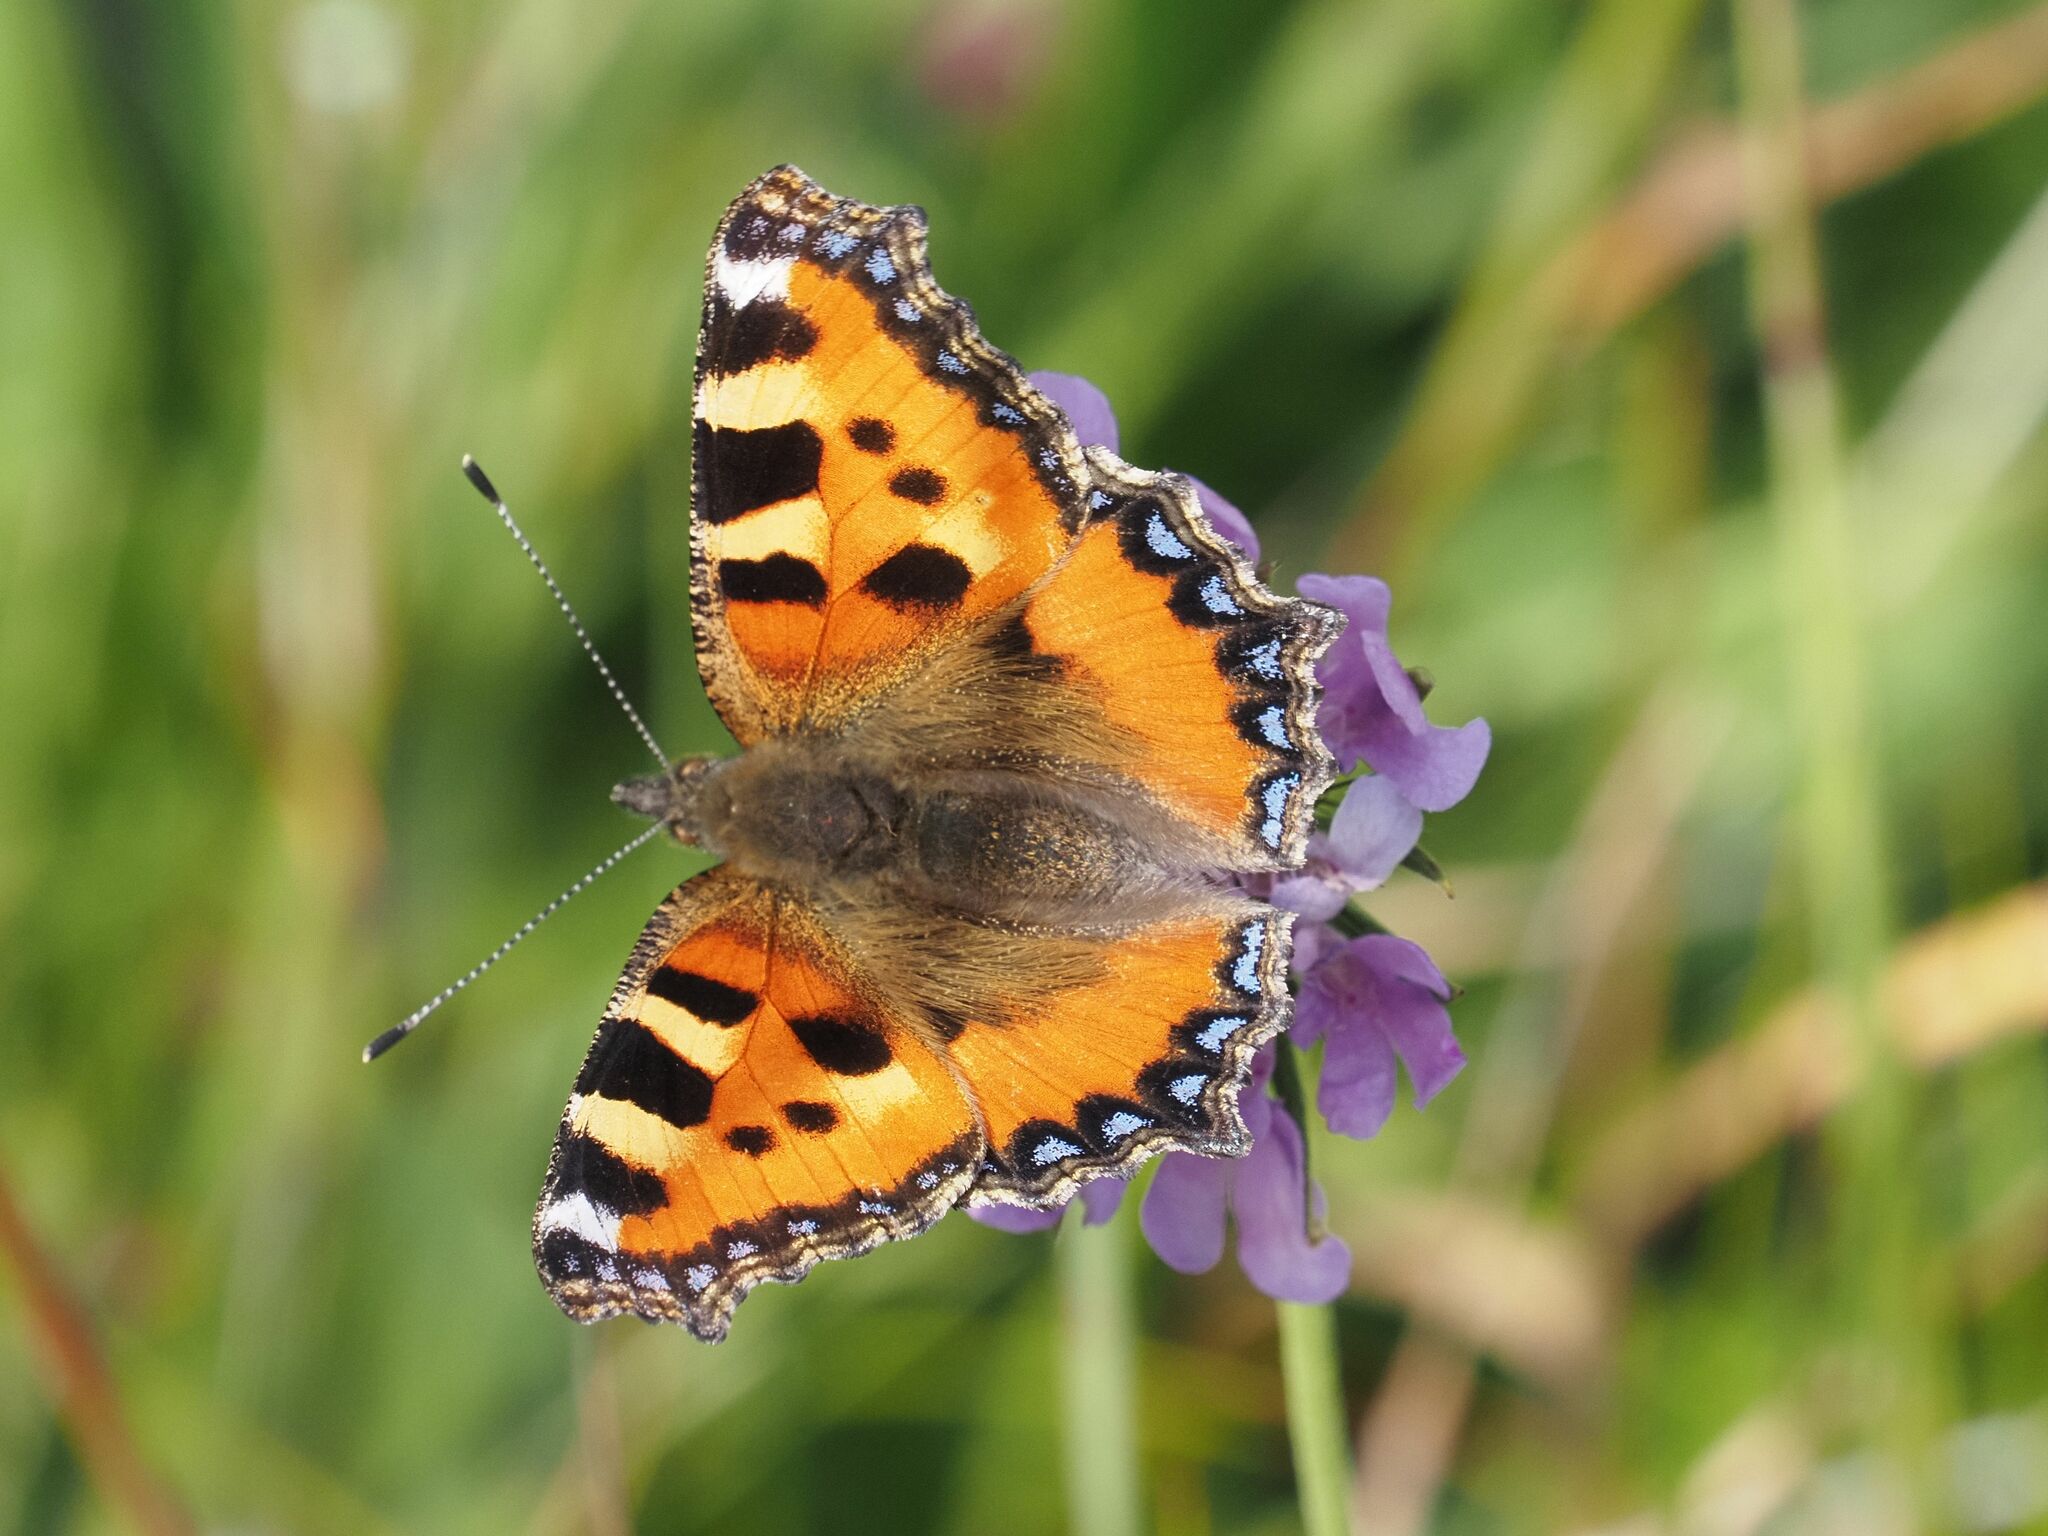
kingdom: Animalia
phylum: Arthropoda
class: Insecta
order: Lepidoptera
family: Nymphalidae
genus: Aglais
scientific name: Aglais urticae
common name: Small tortoiseshell
